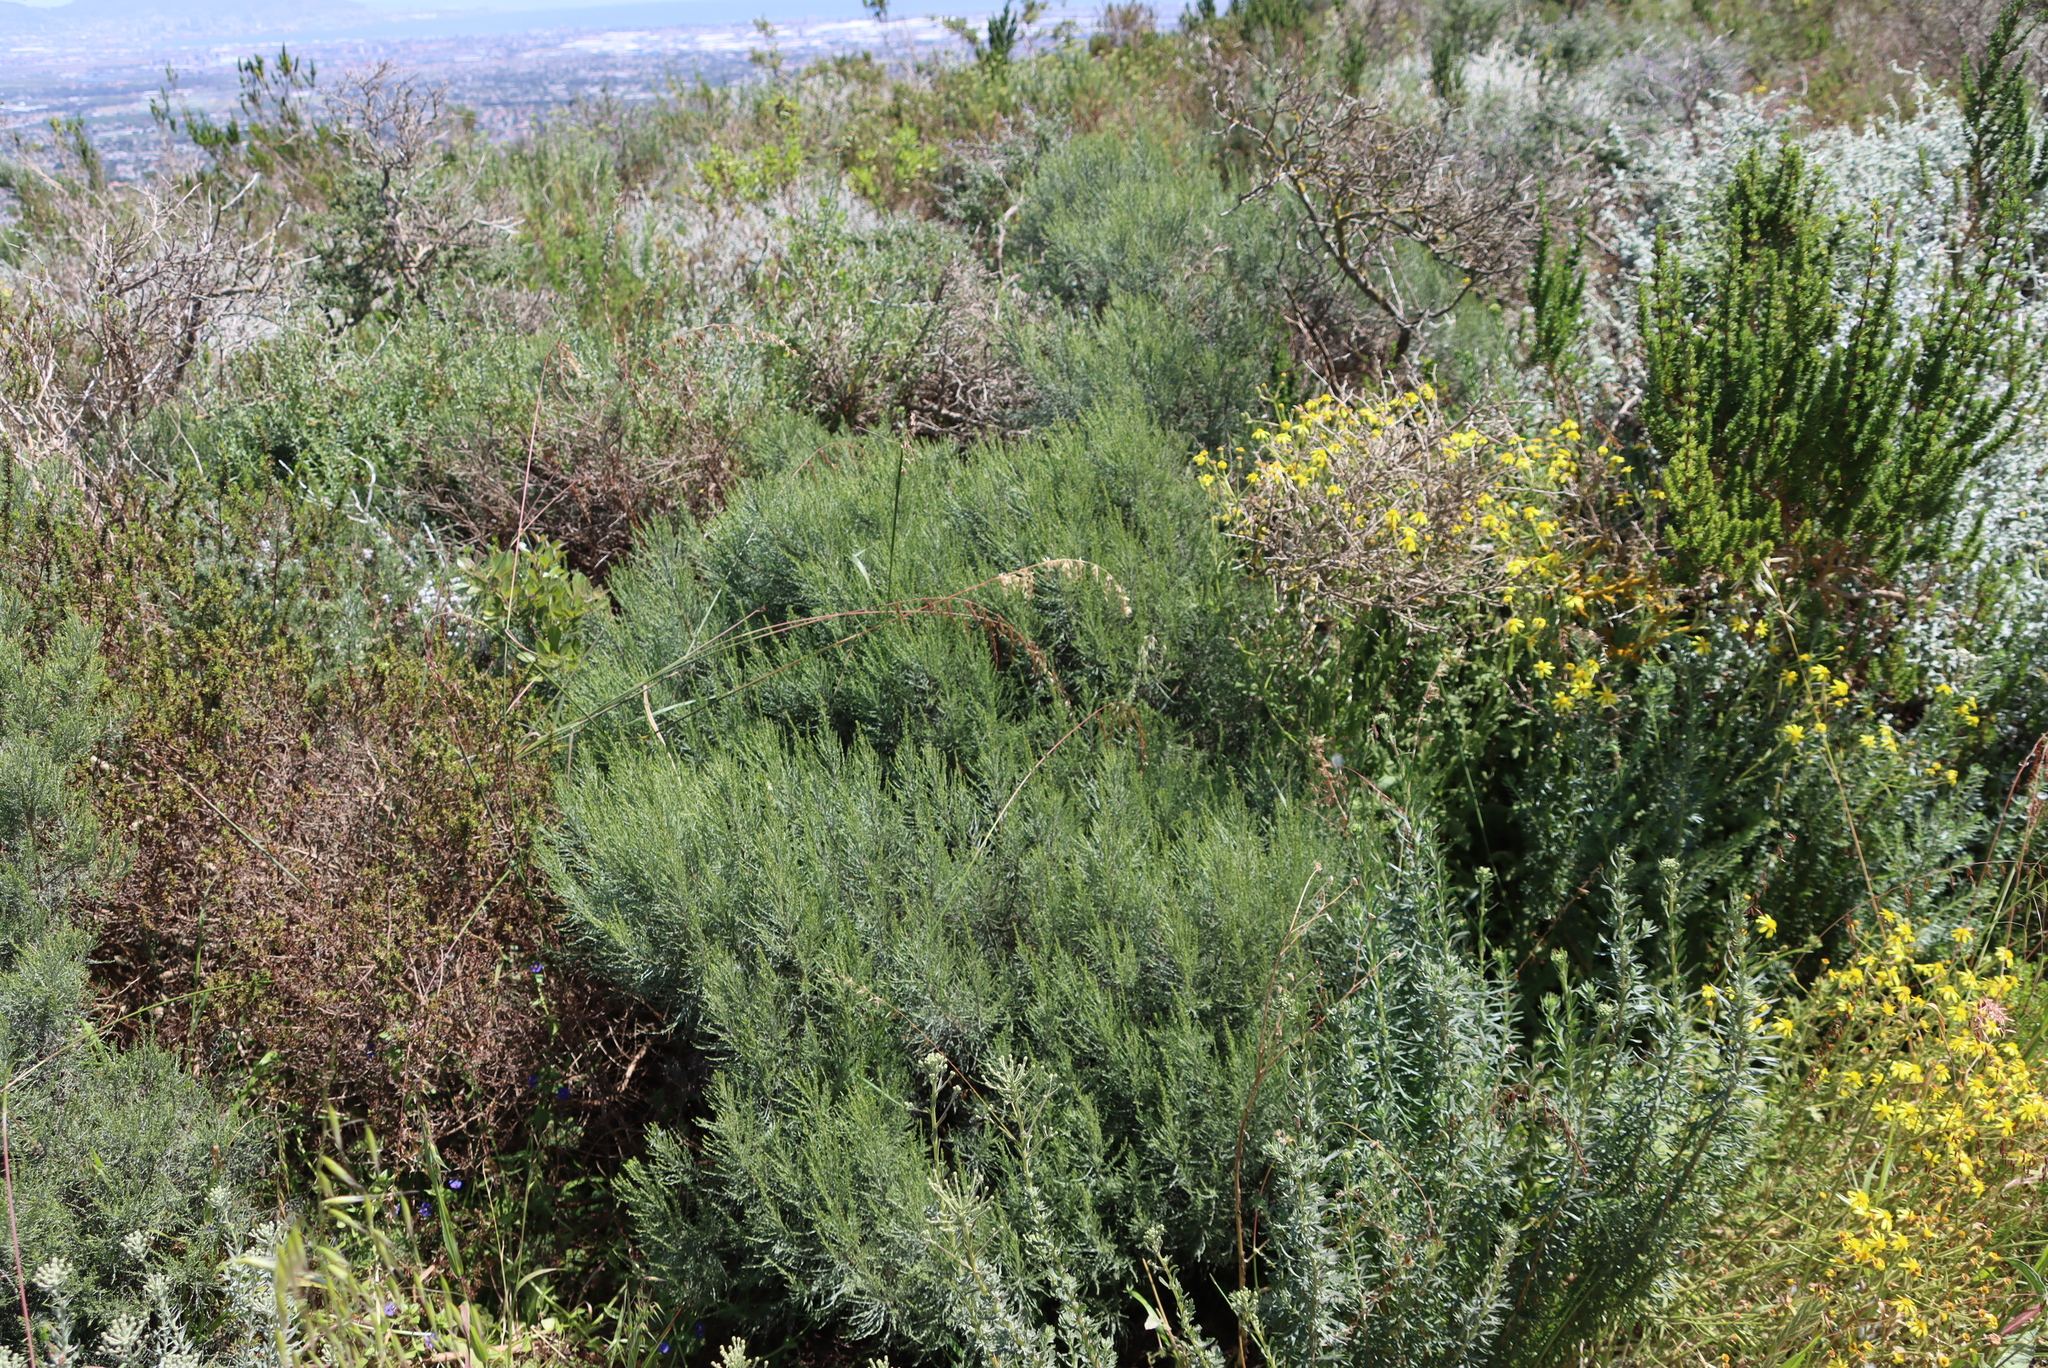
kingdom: Plantae
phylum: Tracheophyta
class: Magnoliopsida
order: Asterales
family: Asteraceae
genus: Dicerothamnus
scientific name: Dicerothamnus rhinocerotis
